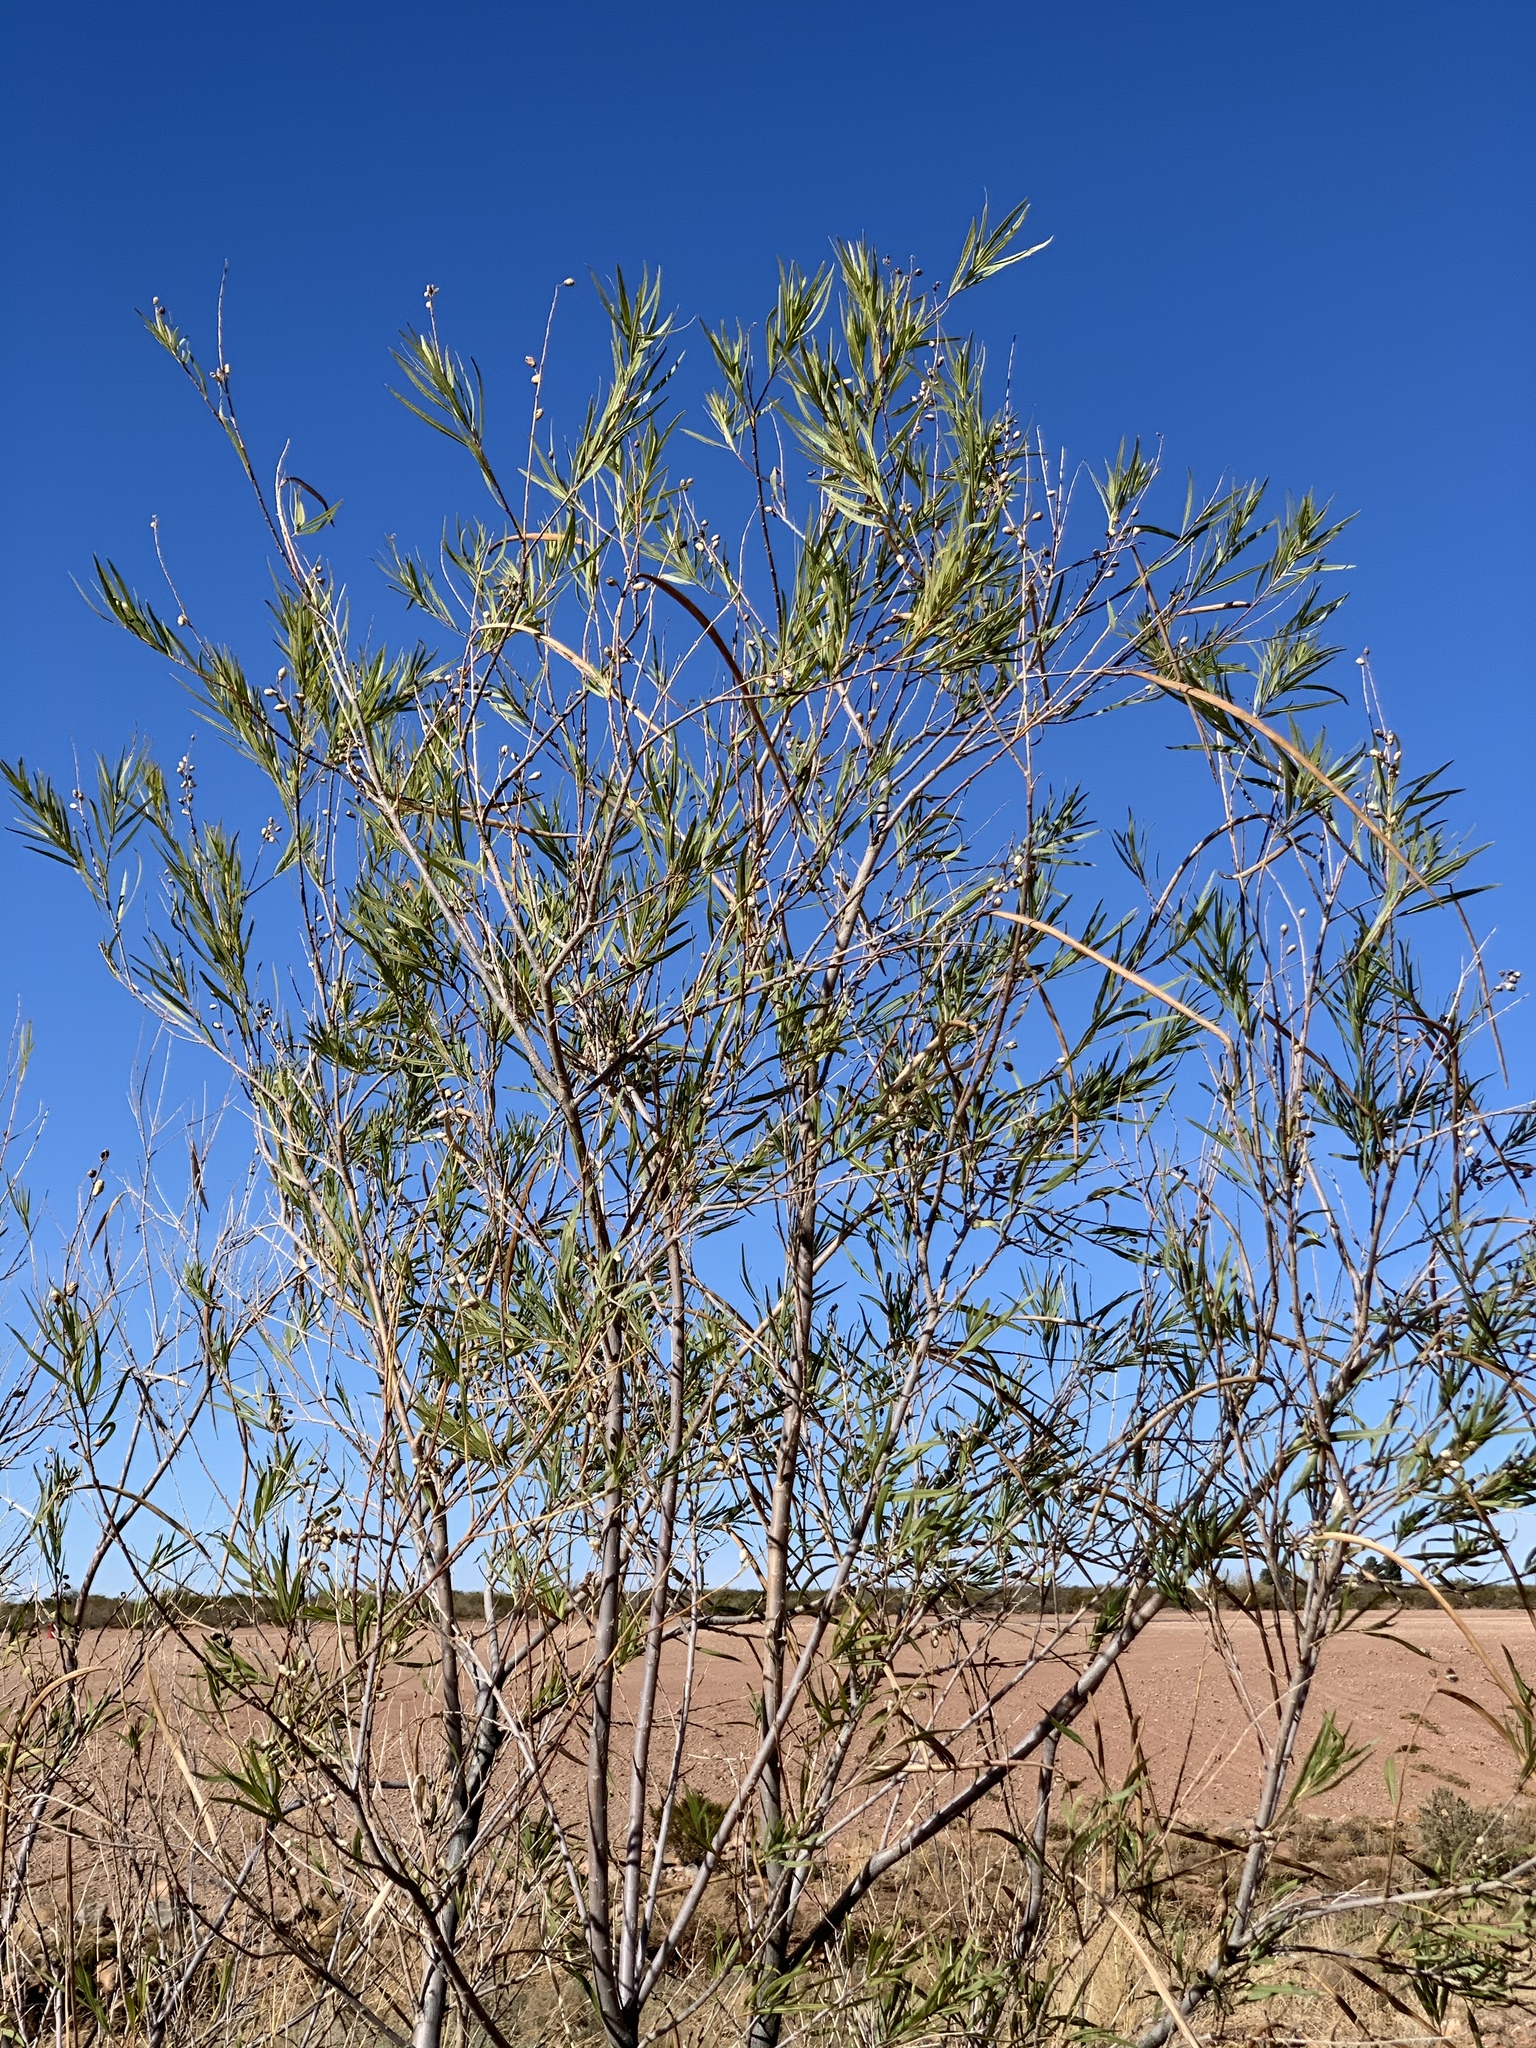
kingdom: Plantae
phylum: Tracheophyta
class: Magnoliopsida
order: Lamiales
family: Bignoniaceae
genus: Chilopsis
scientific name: Chilopsis linearis
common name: Desert-willow
